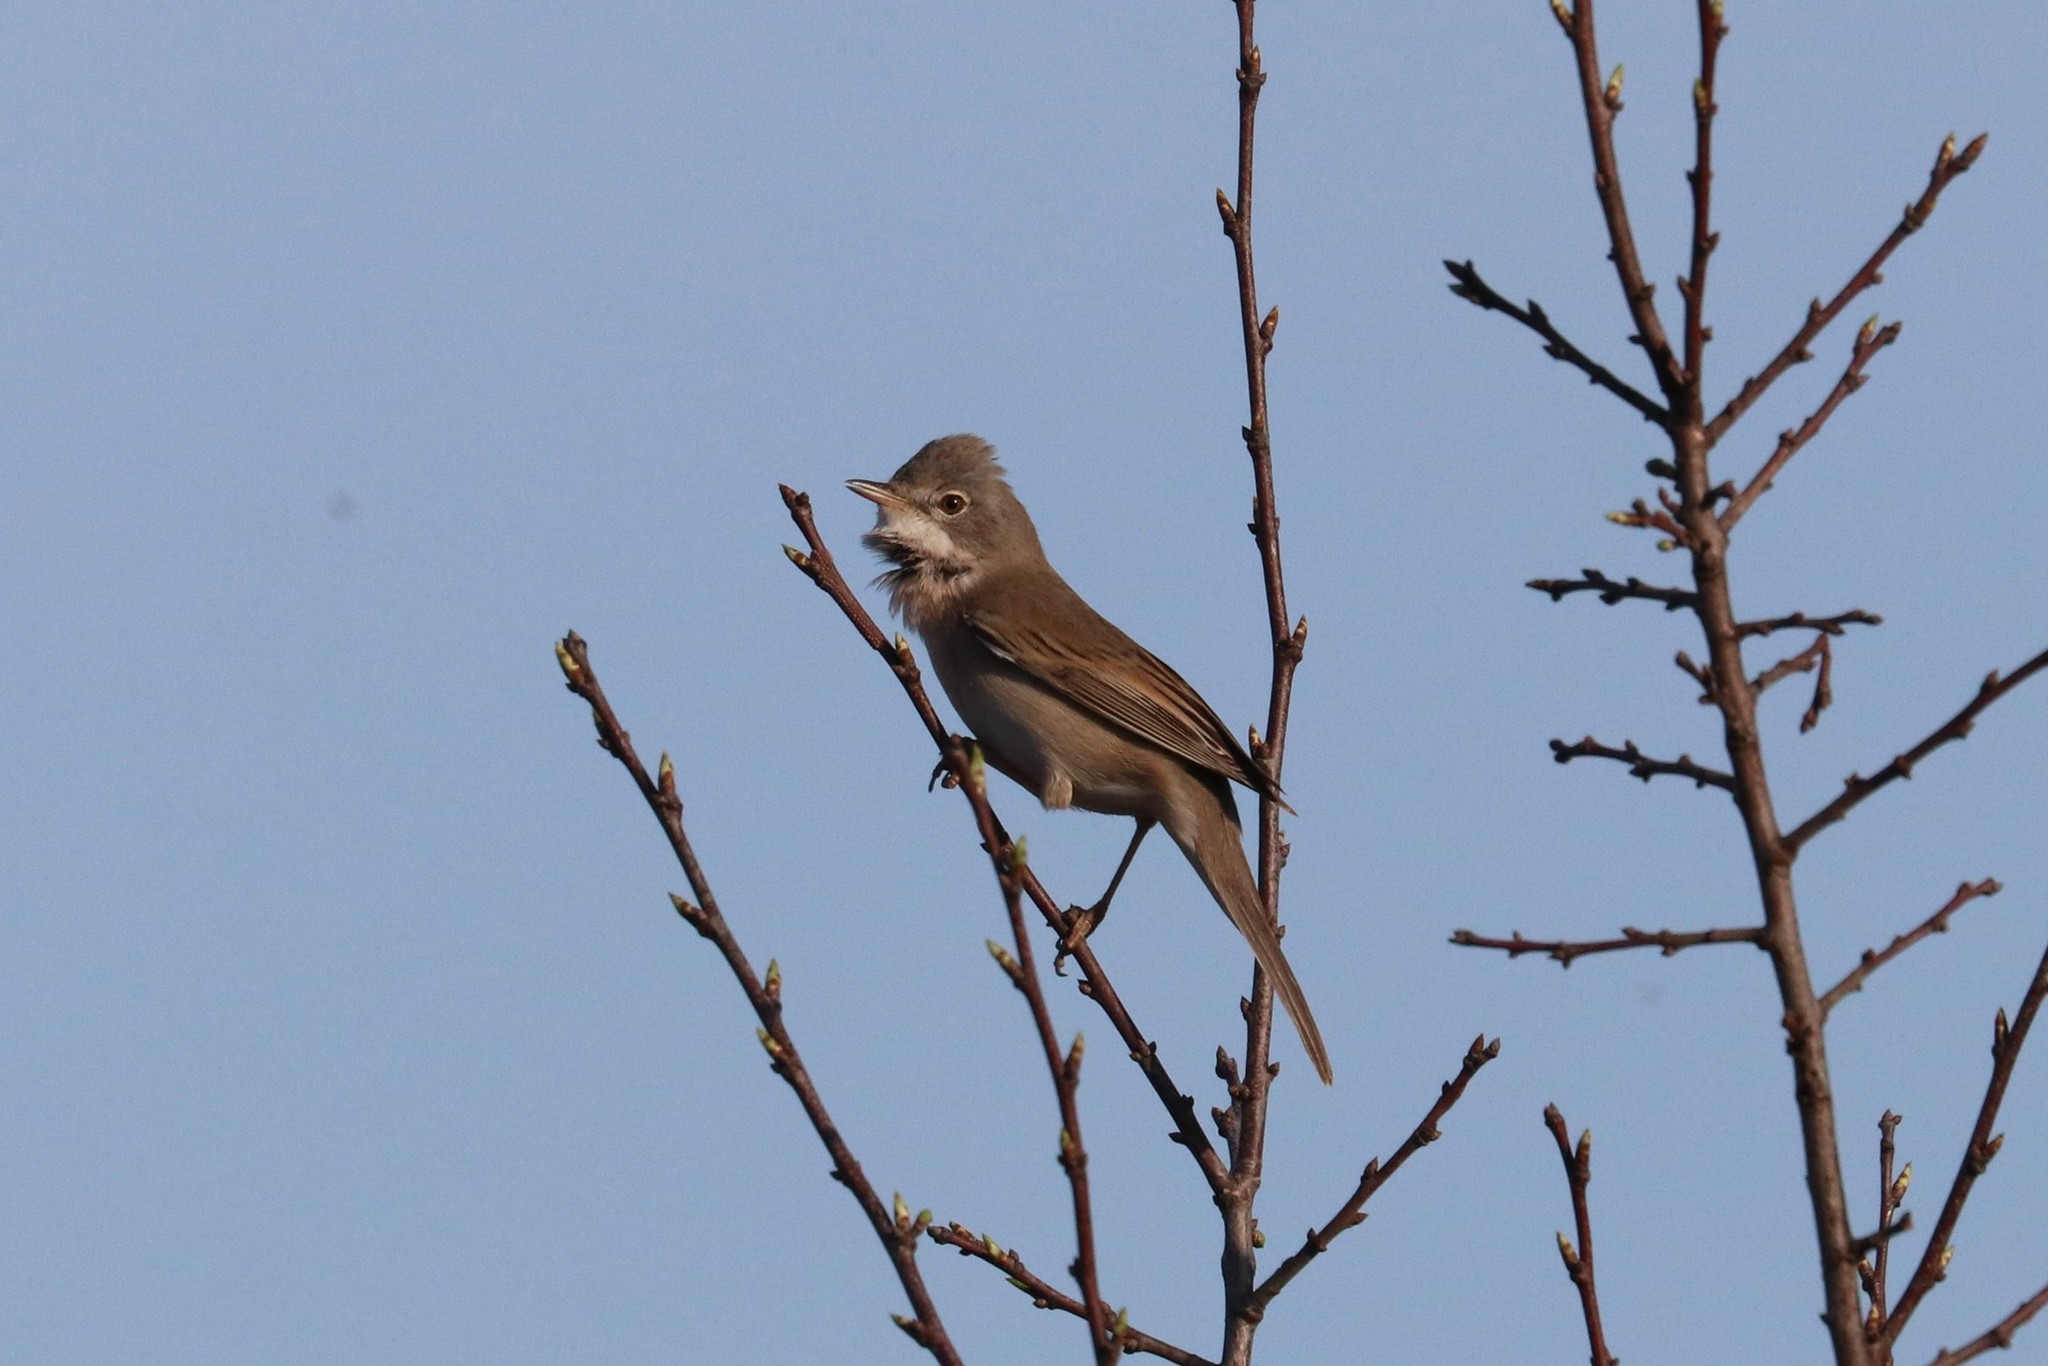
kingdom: Animalia
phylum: Chordata
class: Aves
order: Passeriformes
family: Sylviidae
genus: Sylvia
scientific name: Sylvia communis
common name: Common whitethroat
